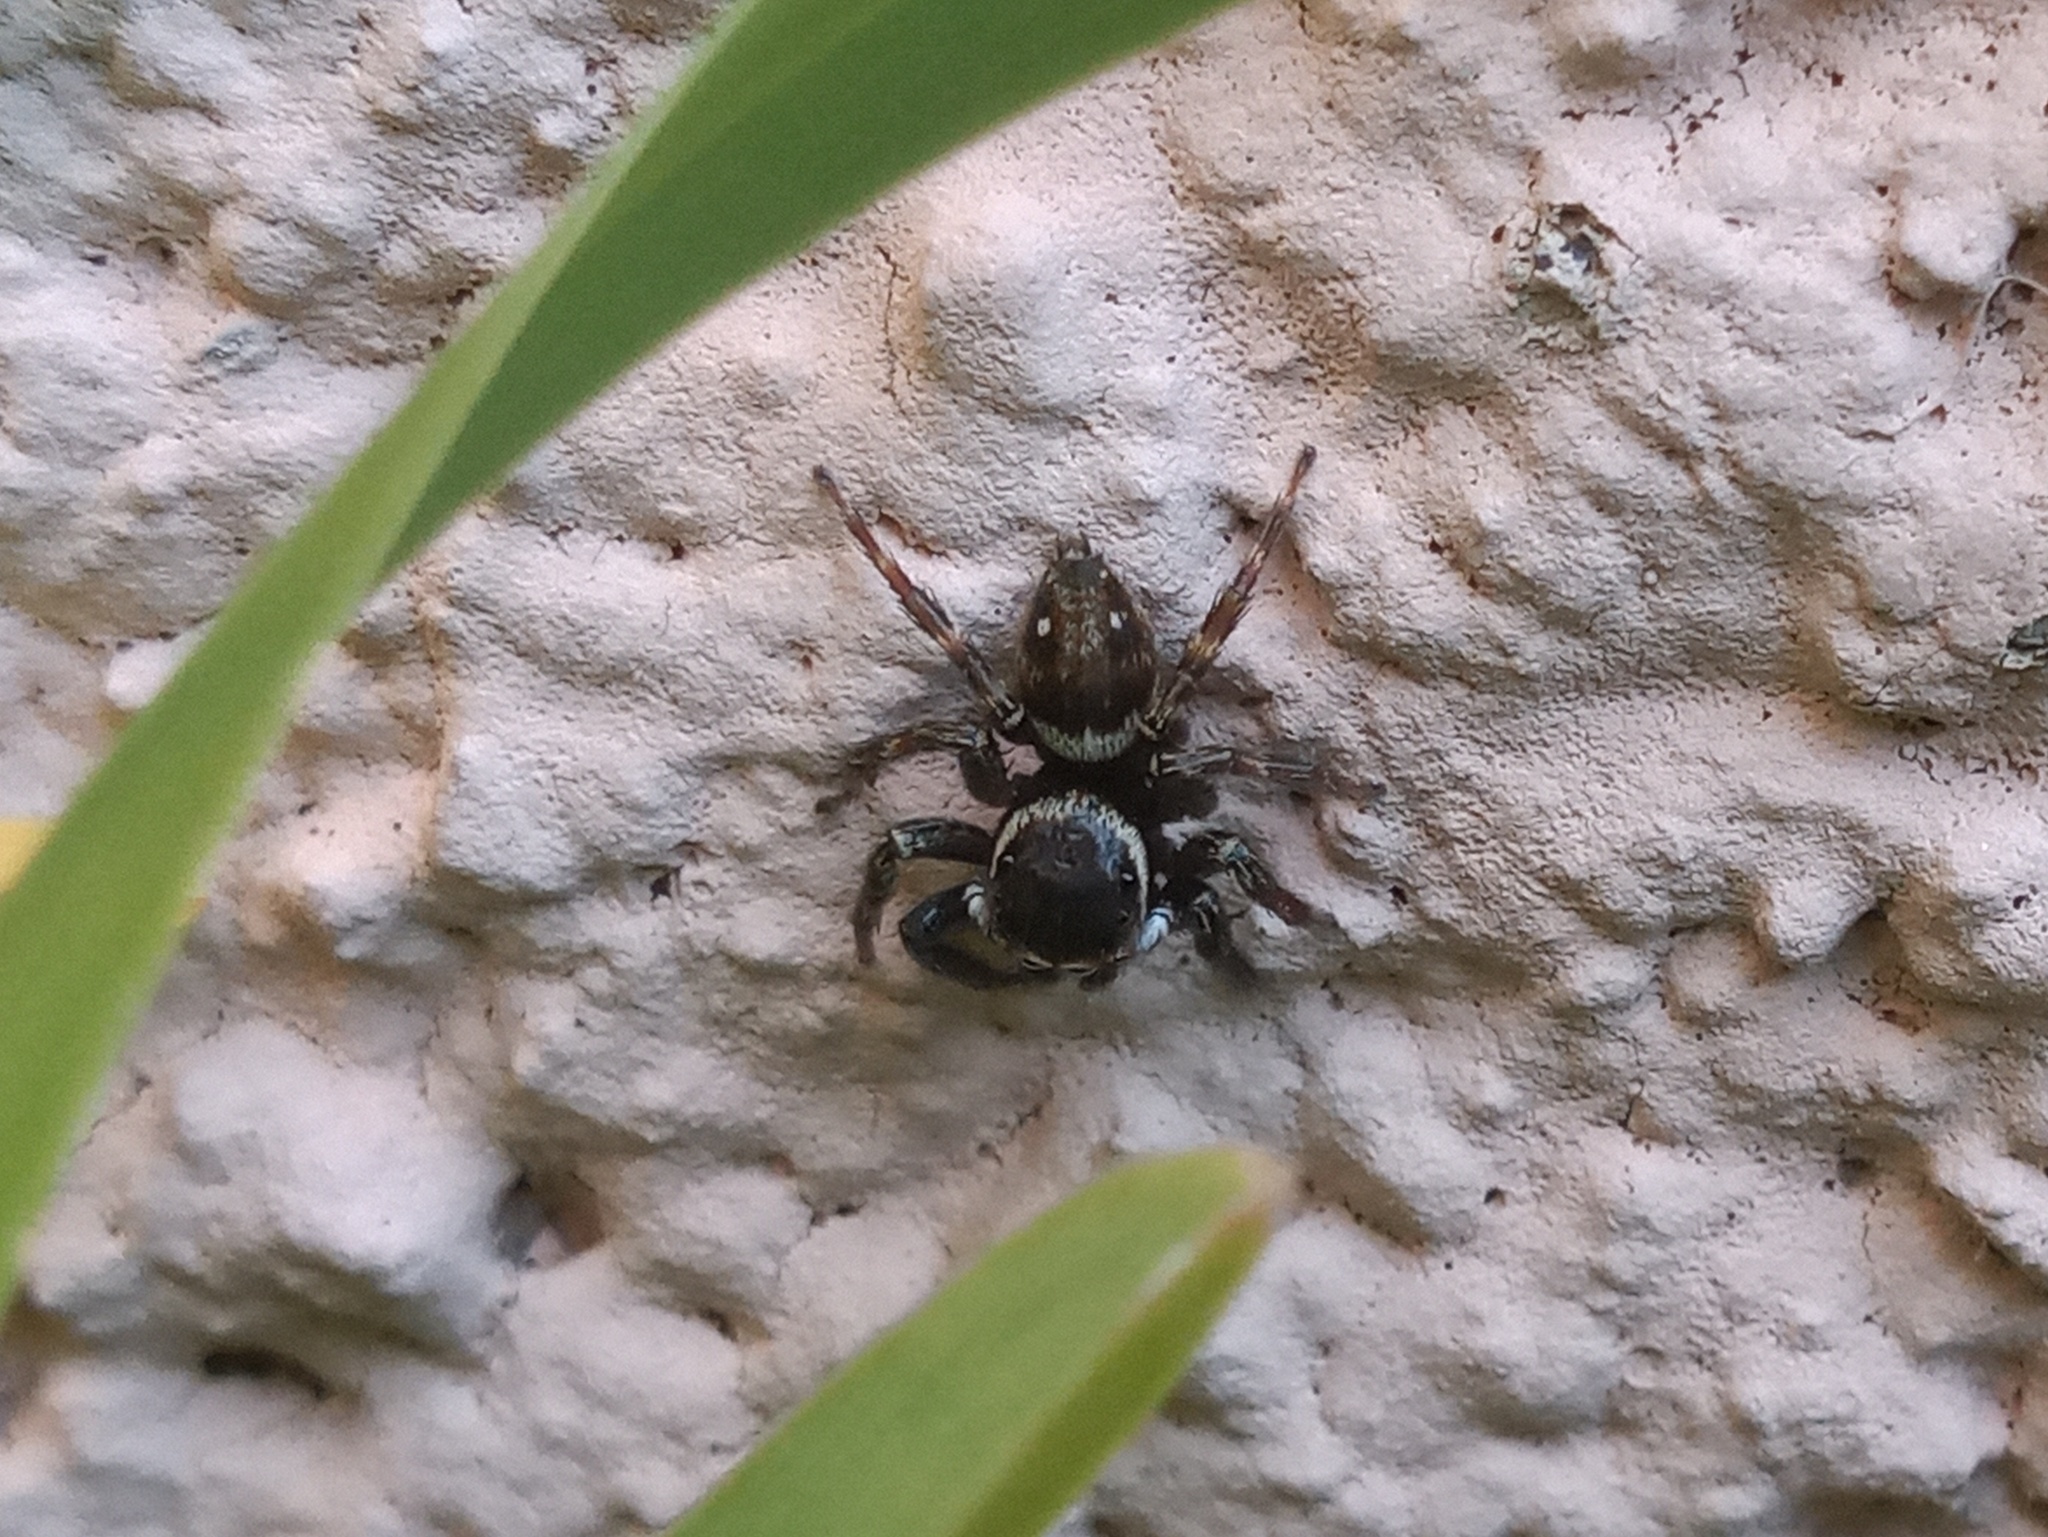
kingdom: Animalia
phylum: Arthropoda
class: Arachnida
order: Araneae
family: Salticidae
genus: Hasarius
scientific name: Hasarius adansoni
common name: Jumping spider
